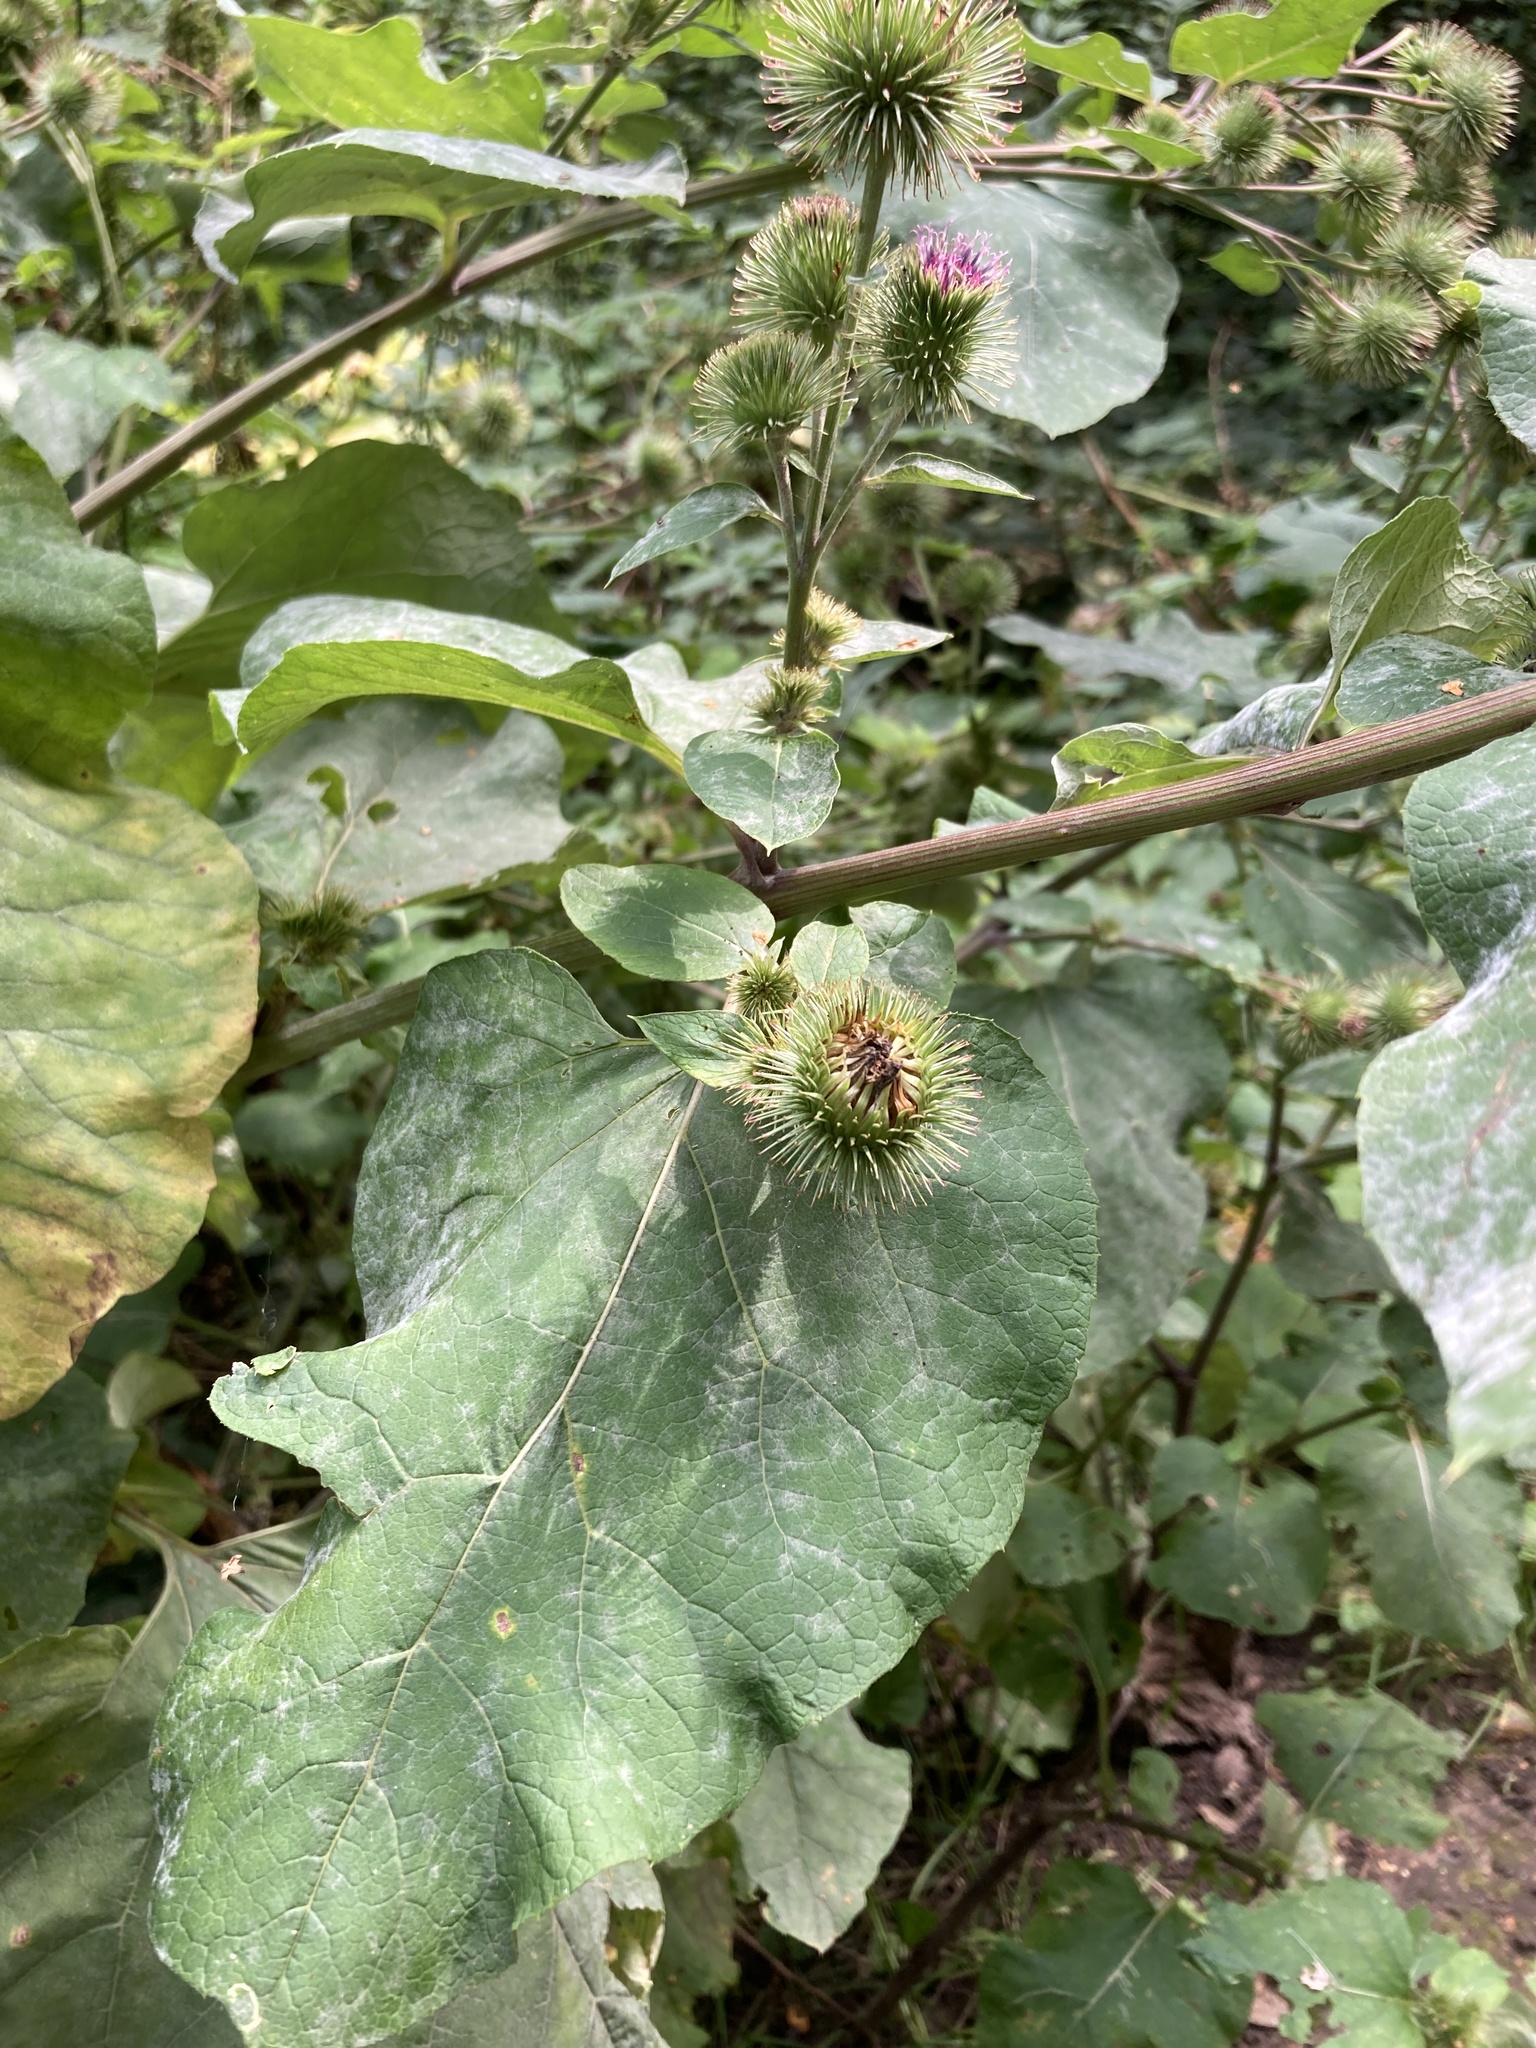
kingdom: Plantae
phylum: Tracheophyta
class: Magnoliopsida
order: Asterales
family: Asteraceae
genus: Arctium
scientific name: Arctium lappa
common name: Greater burdock
